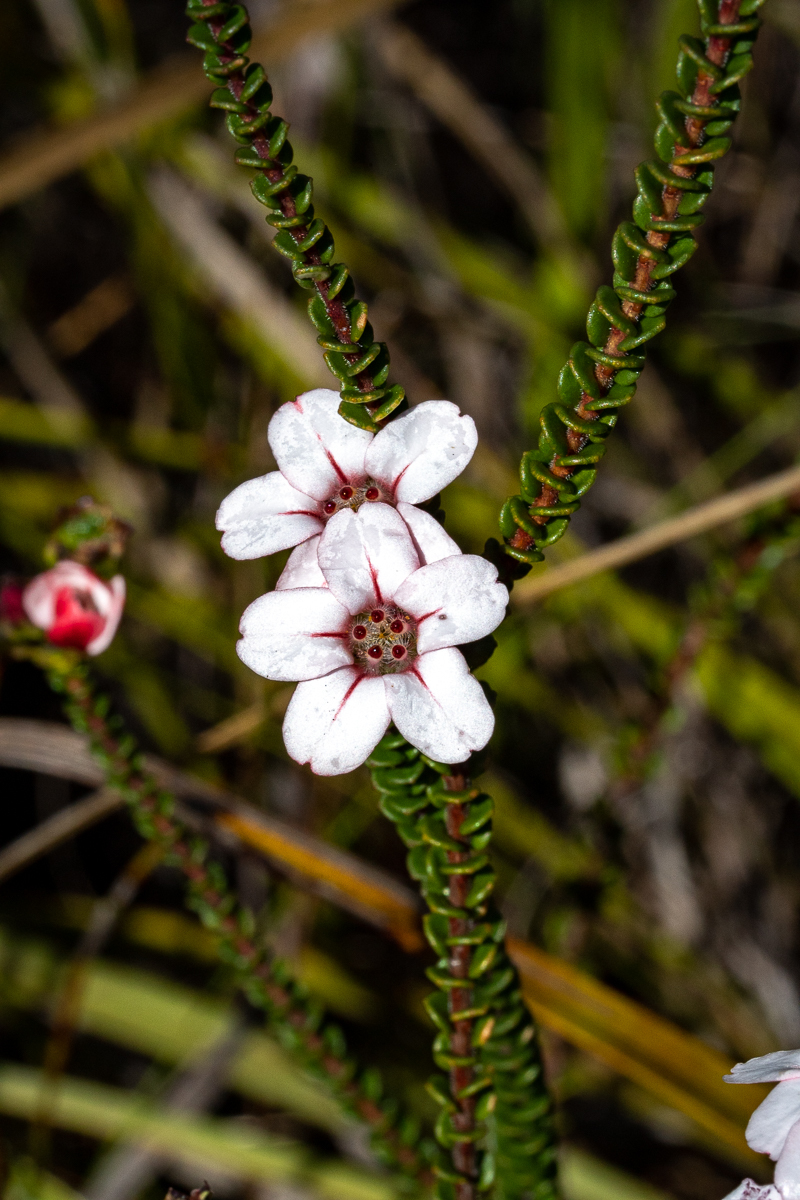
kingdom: Plantae
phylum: Tracheophyta
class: Magnoliopsida
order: Sapindales
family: Rutaceae
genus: Adenandra
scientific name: Adenandra brachyphylla
